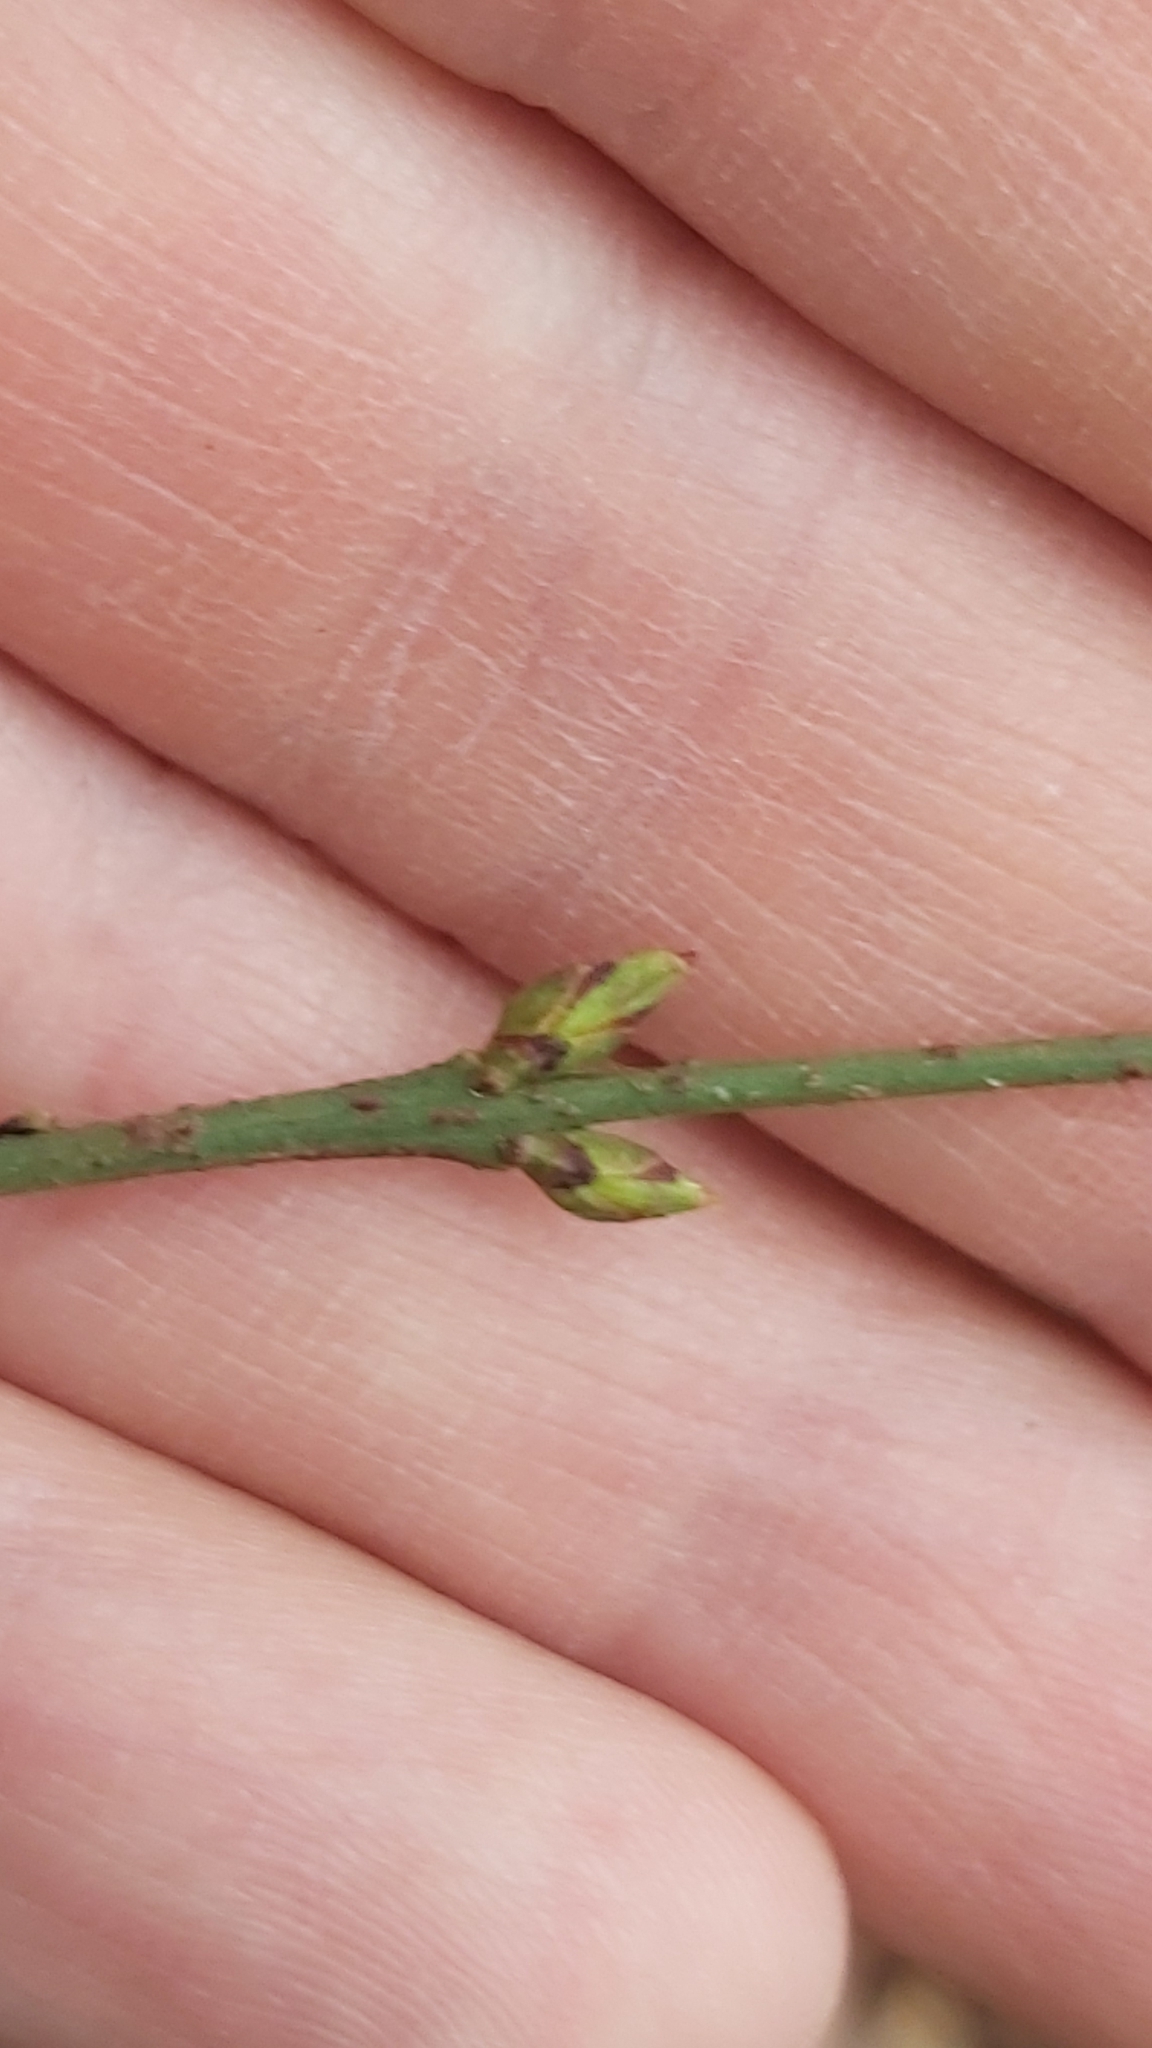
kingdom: Plantae
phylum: Tracheophyta
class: Magnoliopsida
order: Celastrales
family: Celastraceae
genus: Euonymus
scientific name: Euonymus verrucosus
